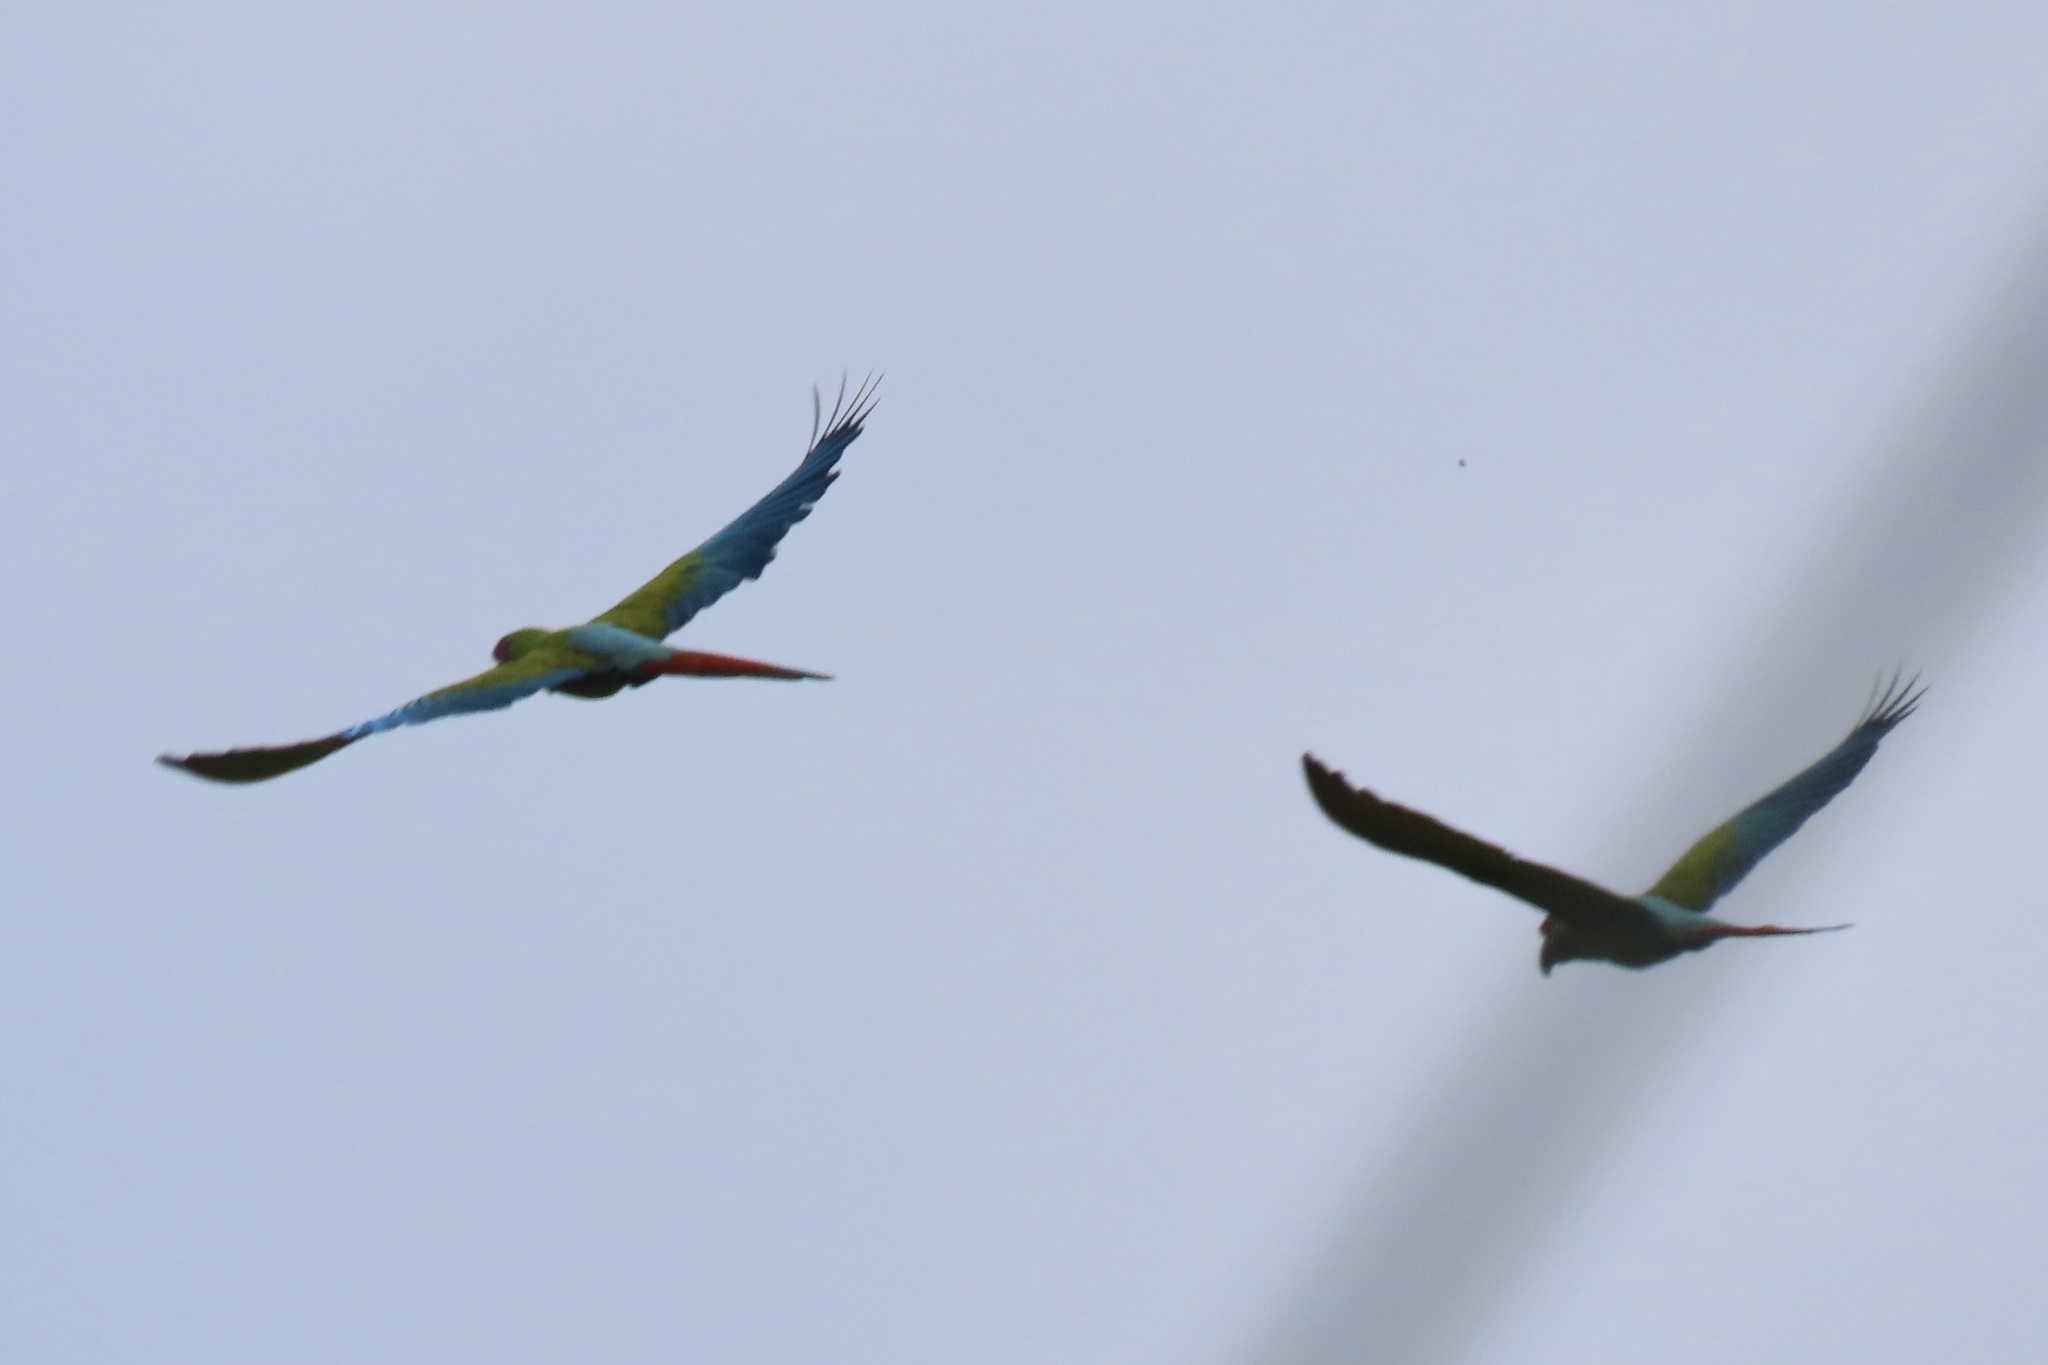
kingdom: Animalia
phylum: Chordata
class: Aves
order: Psittaciformes
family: Psittacidae
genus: Ara
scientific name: Ara ambiguus
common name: Great green macaw
